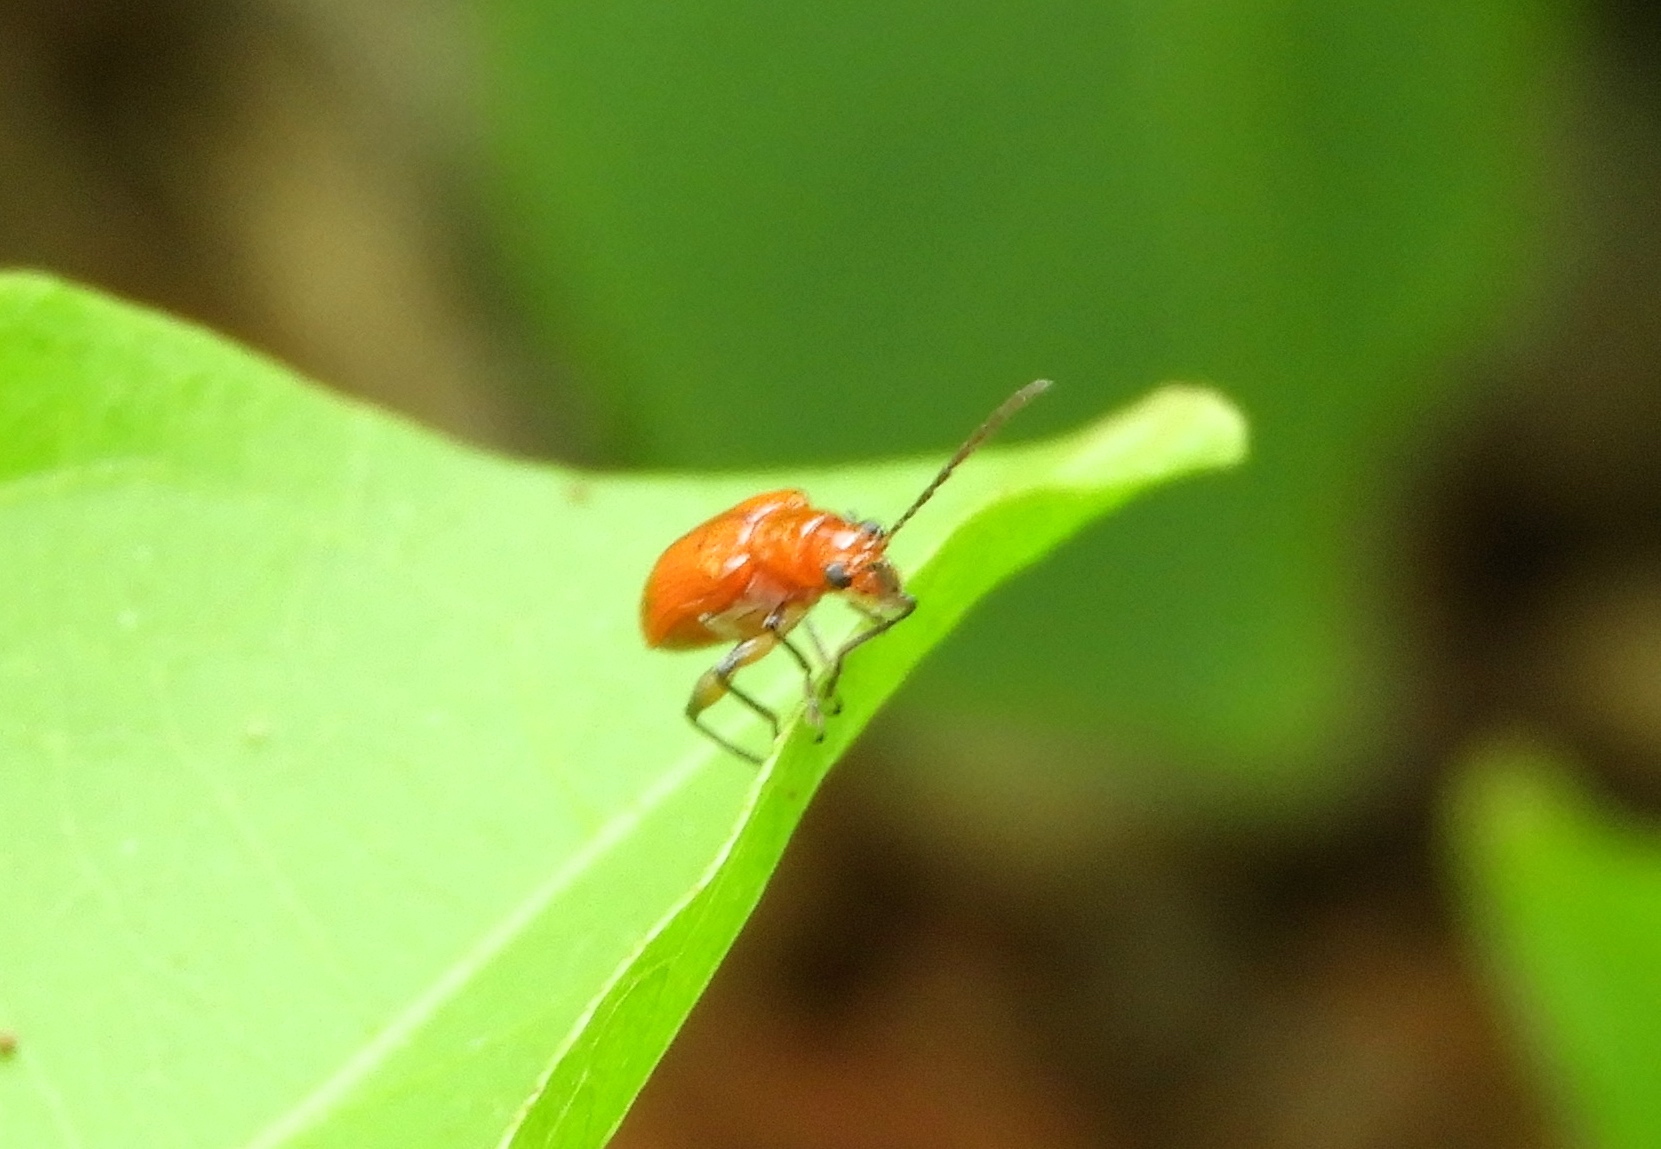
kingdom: Animalia
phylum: Arthropoda
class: Insecta
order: Coleoptera
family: Chrysomelidae
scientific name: Chrysomelidae
